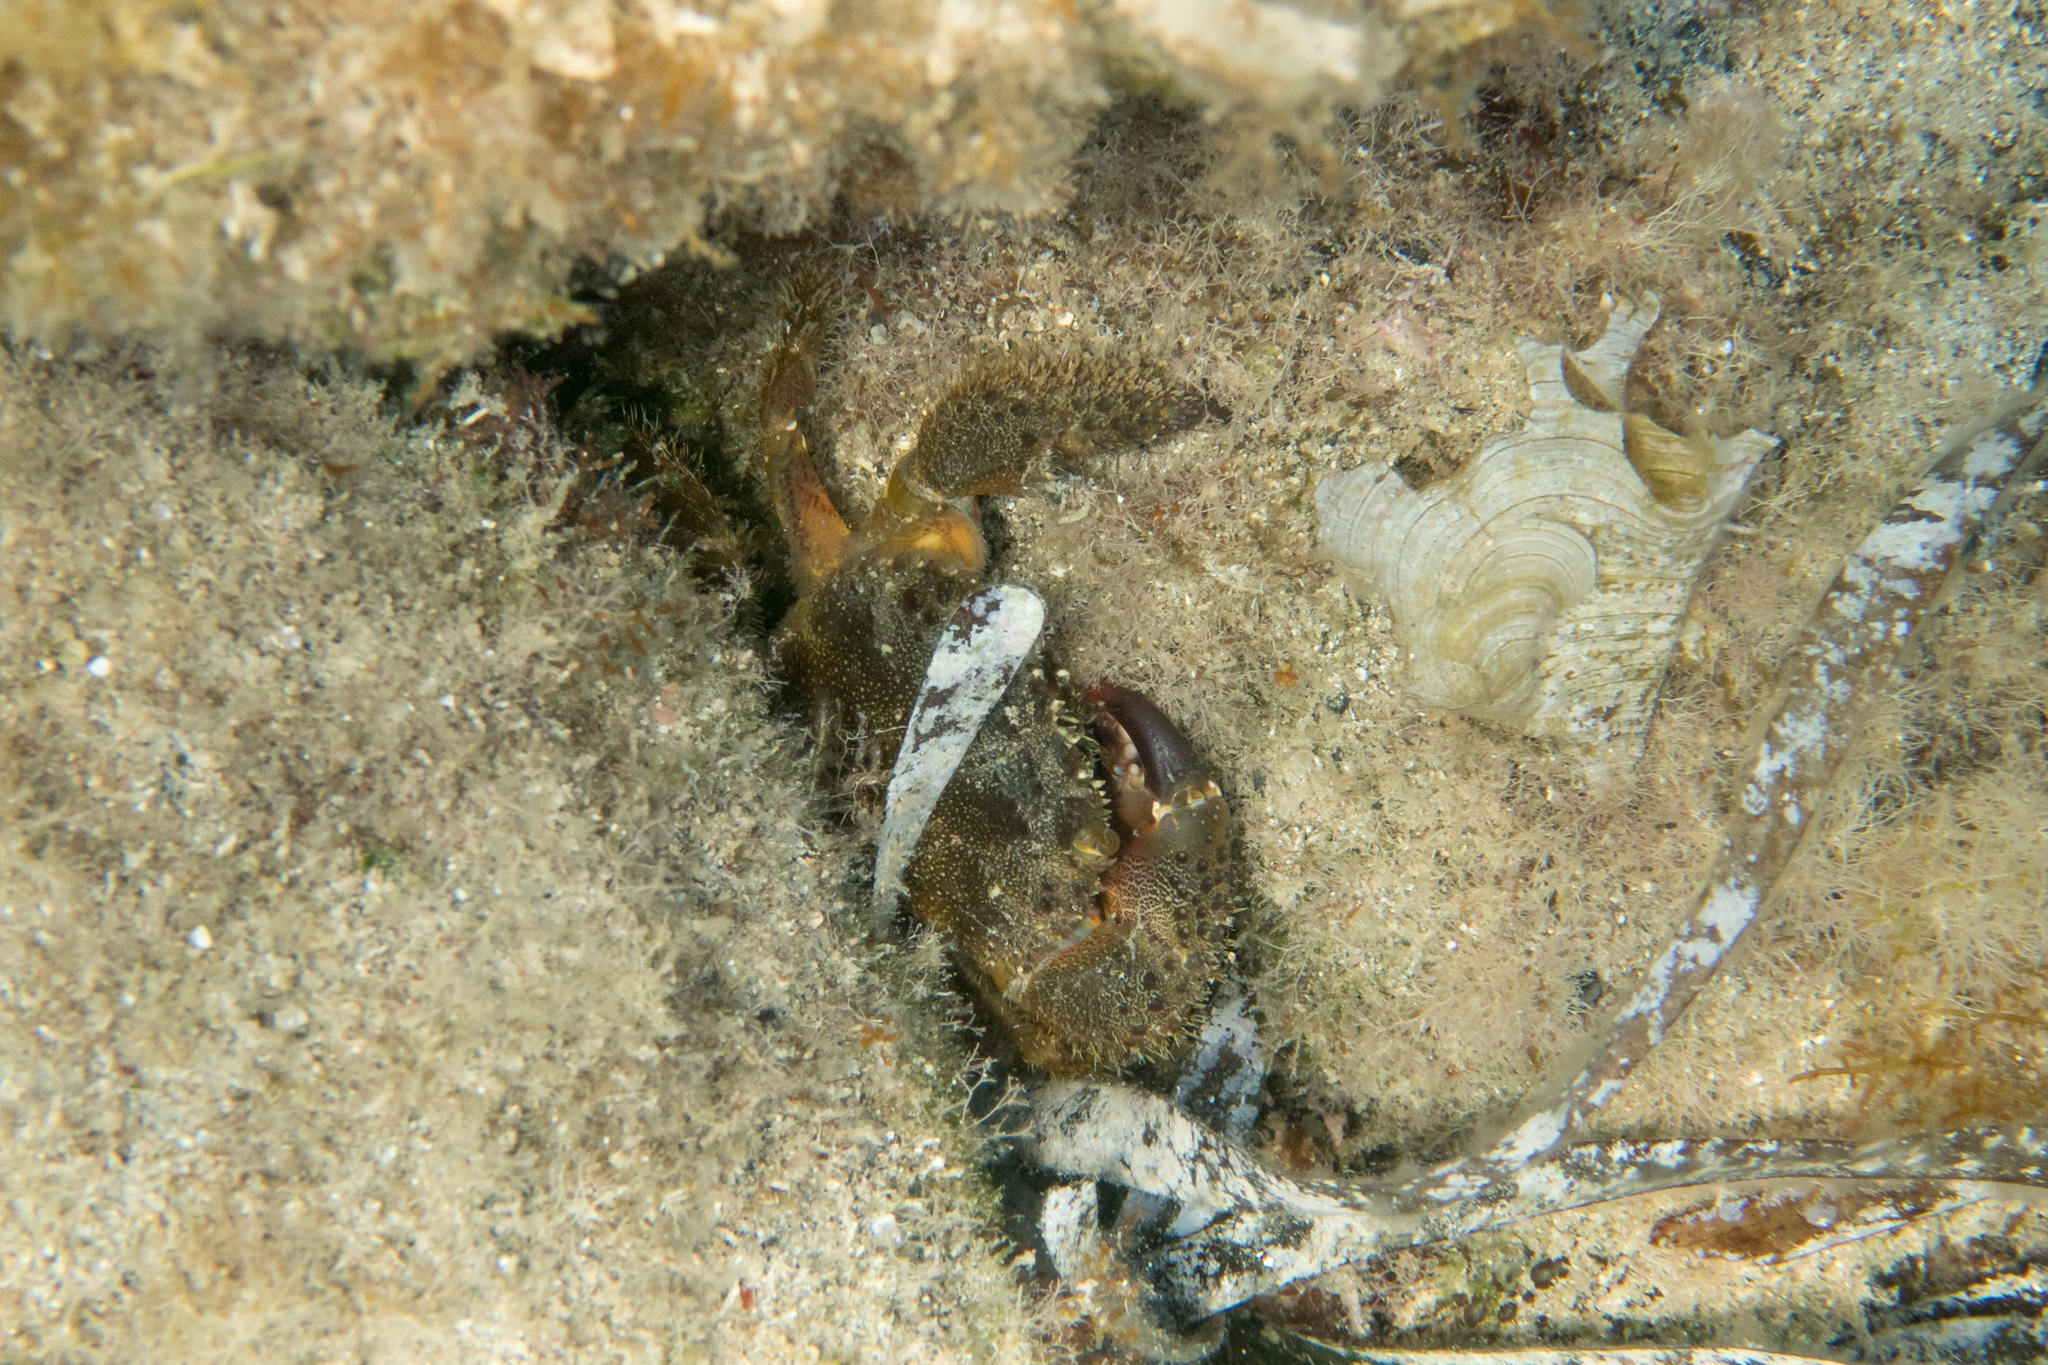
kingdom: Animalia
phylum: Arthropoda
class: Malacostraca
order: Decapoda
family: Eriphiidae
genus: Eriphia
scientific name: Eriphia verrucosa
